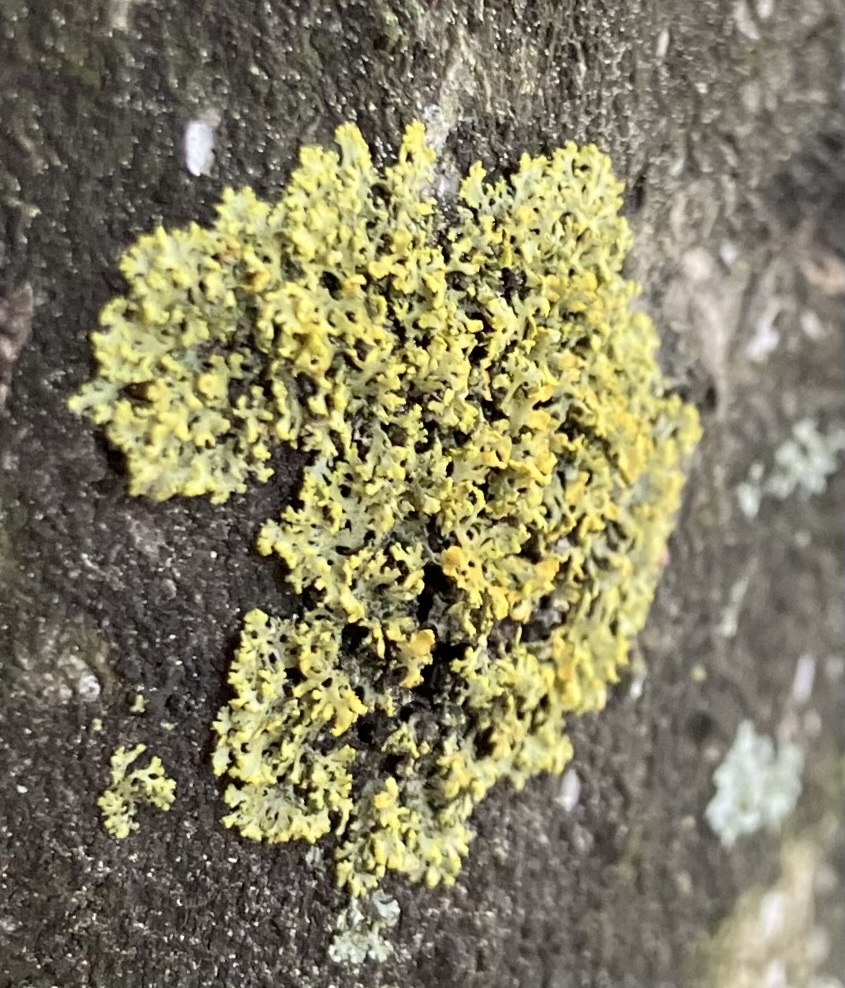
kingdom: Fungi
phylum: Ascomycota
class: Lecanoromycetes
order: Teloschistales
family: Teloschistaceae
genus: Gallowayella
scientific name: Gallowayella weberi
